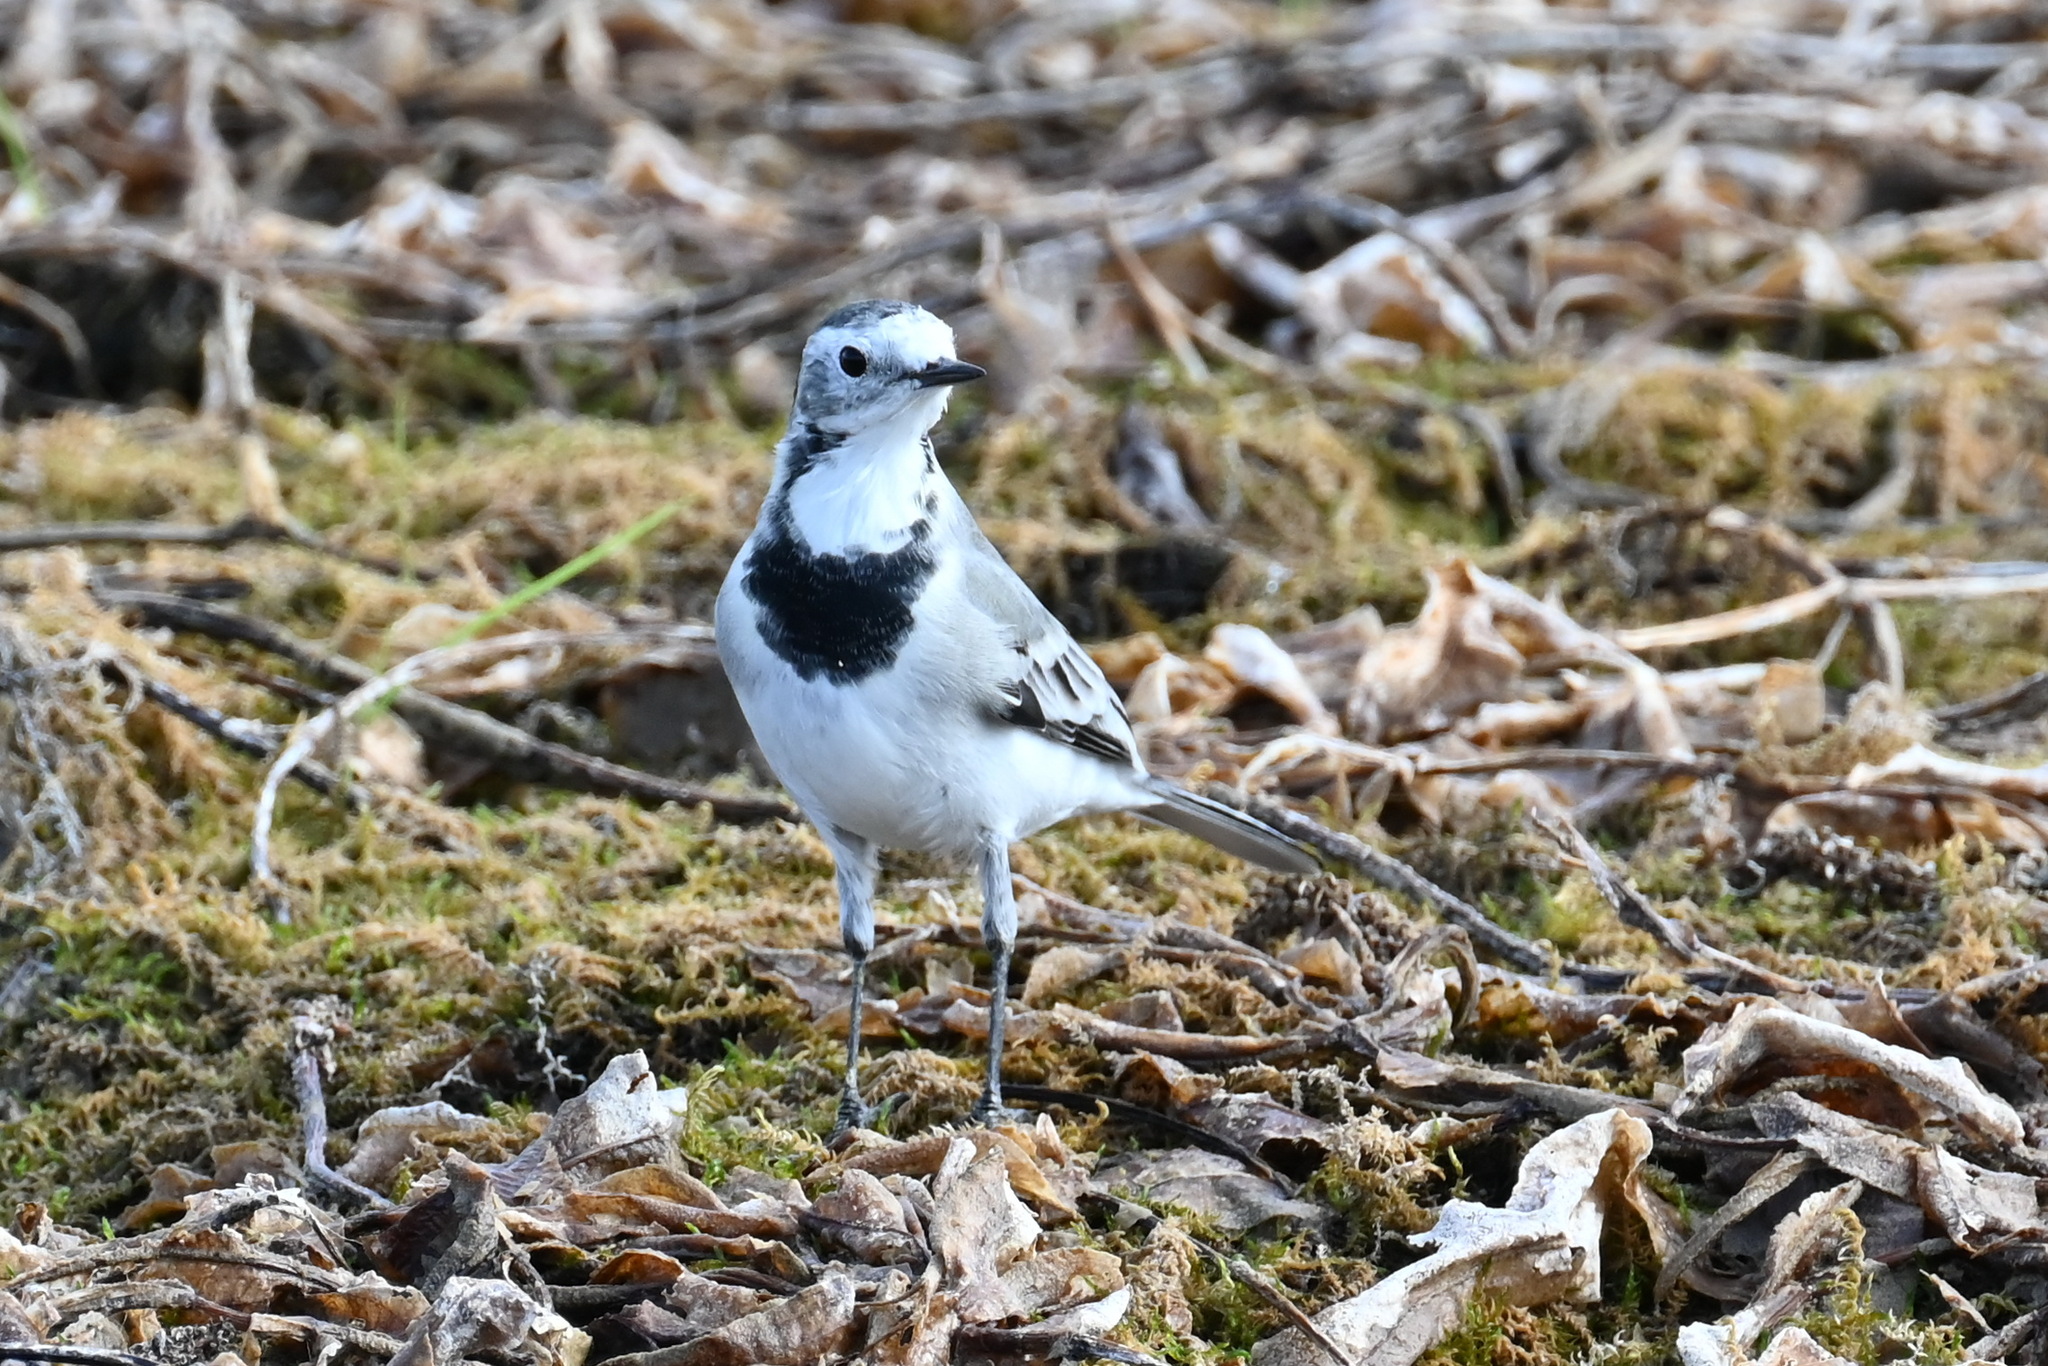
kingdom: Animalia
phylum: Chordata
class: Aves
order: Passeriformes
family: Motacillidae
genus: Motacilla
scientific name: Motacilla alba
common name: White wagtail
